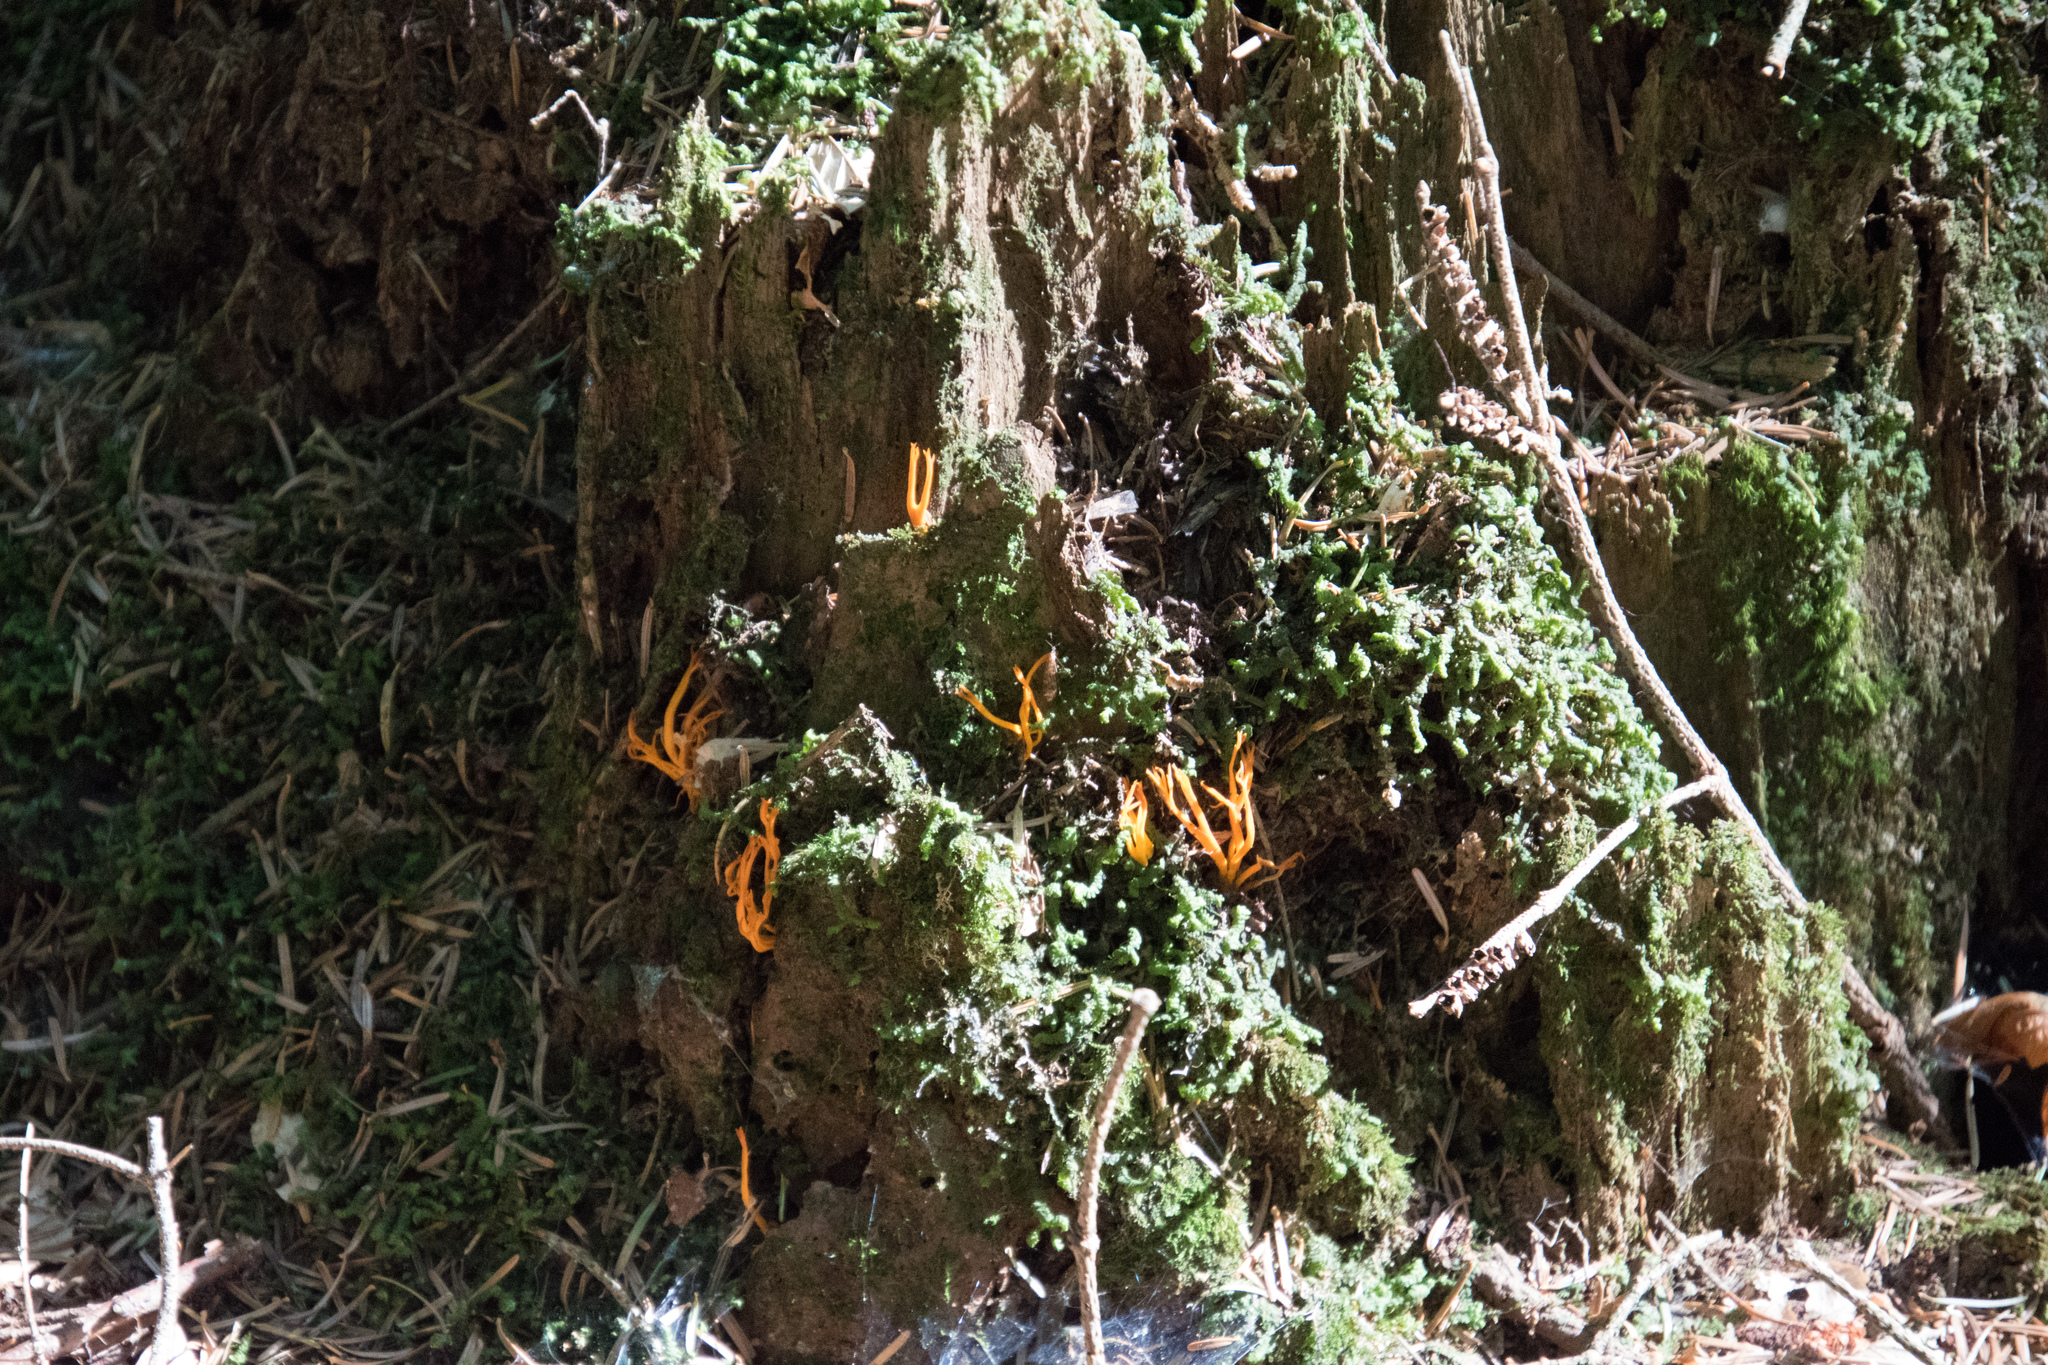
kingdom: Fungi
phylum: Basidiomycota
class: Dacrymycetes
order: Dacrymycetales
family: Dacrymycetaceae
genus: Calocera
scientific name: Calocera viscosa
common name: Yellow stagshorn
